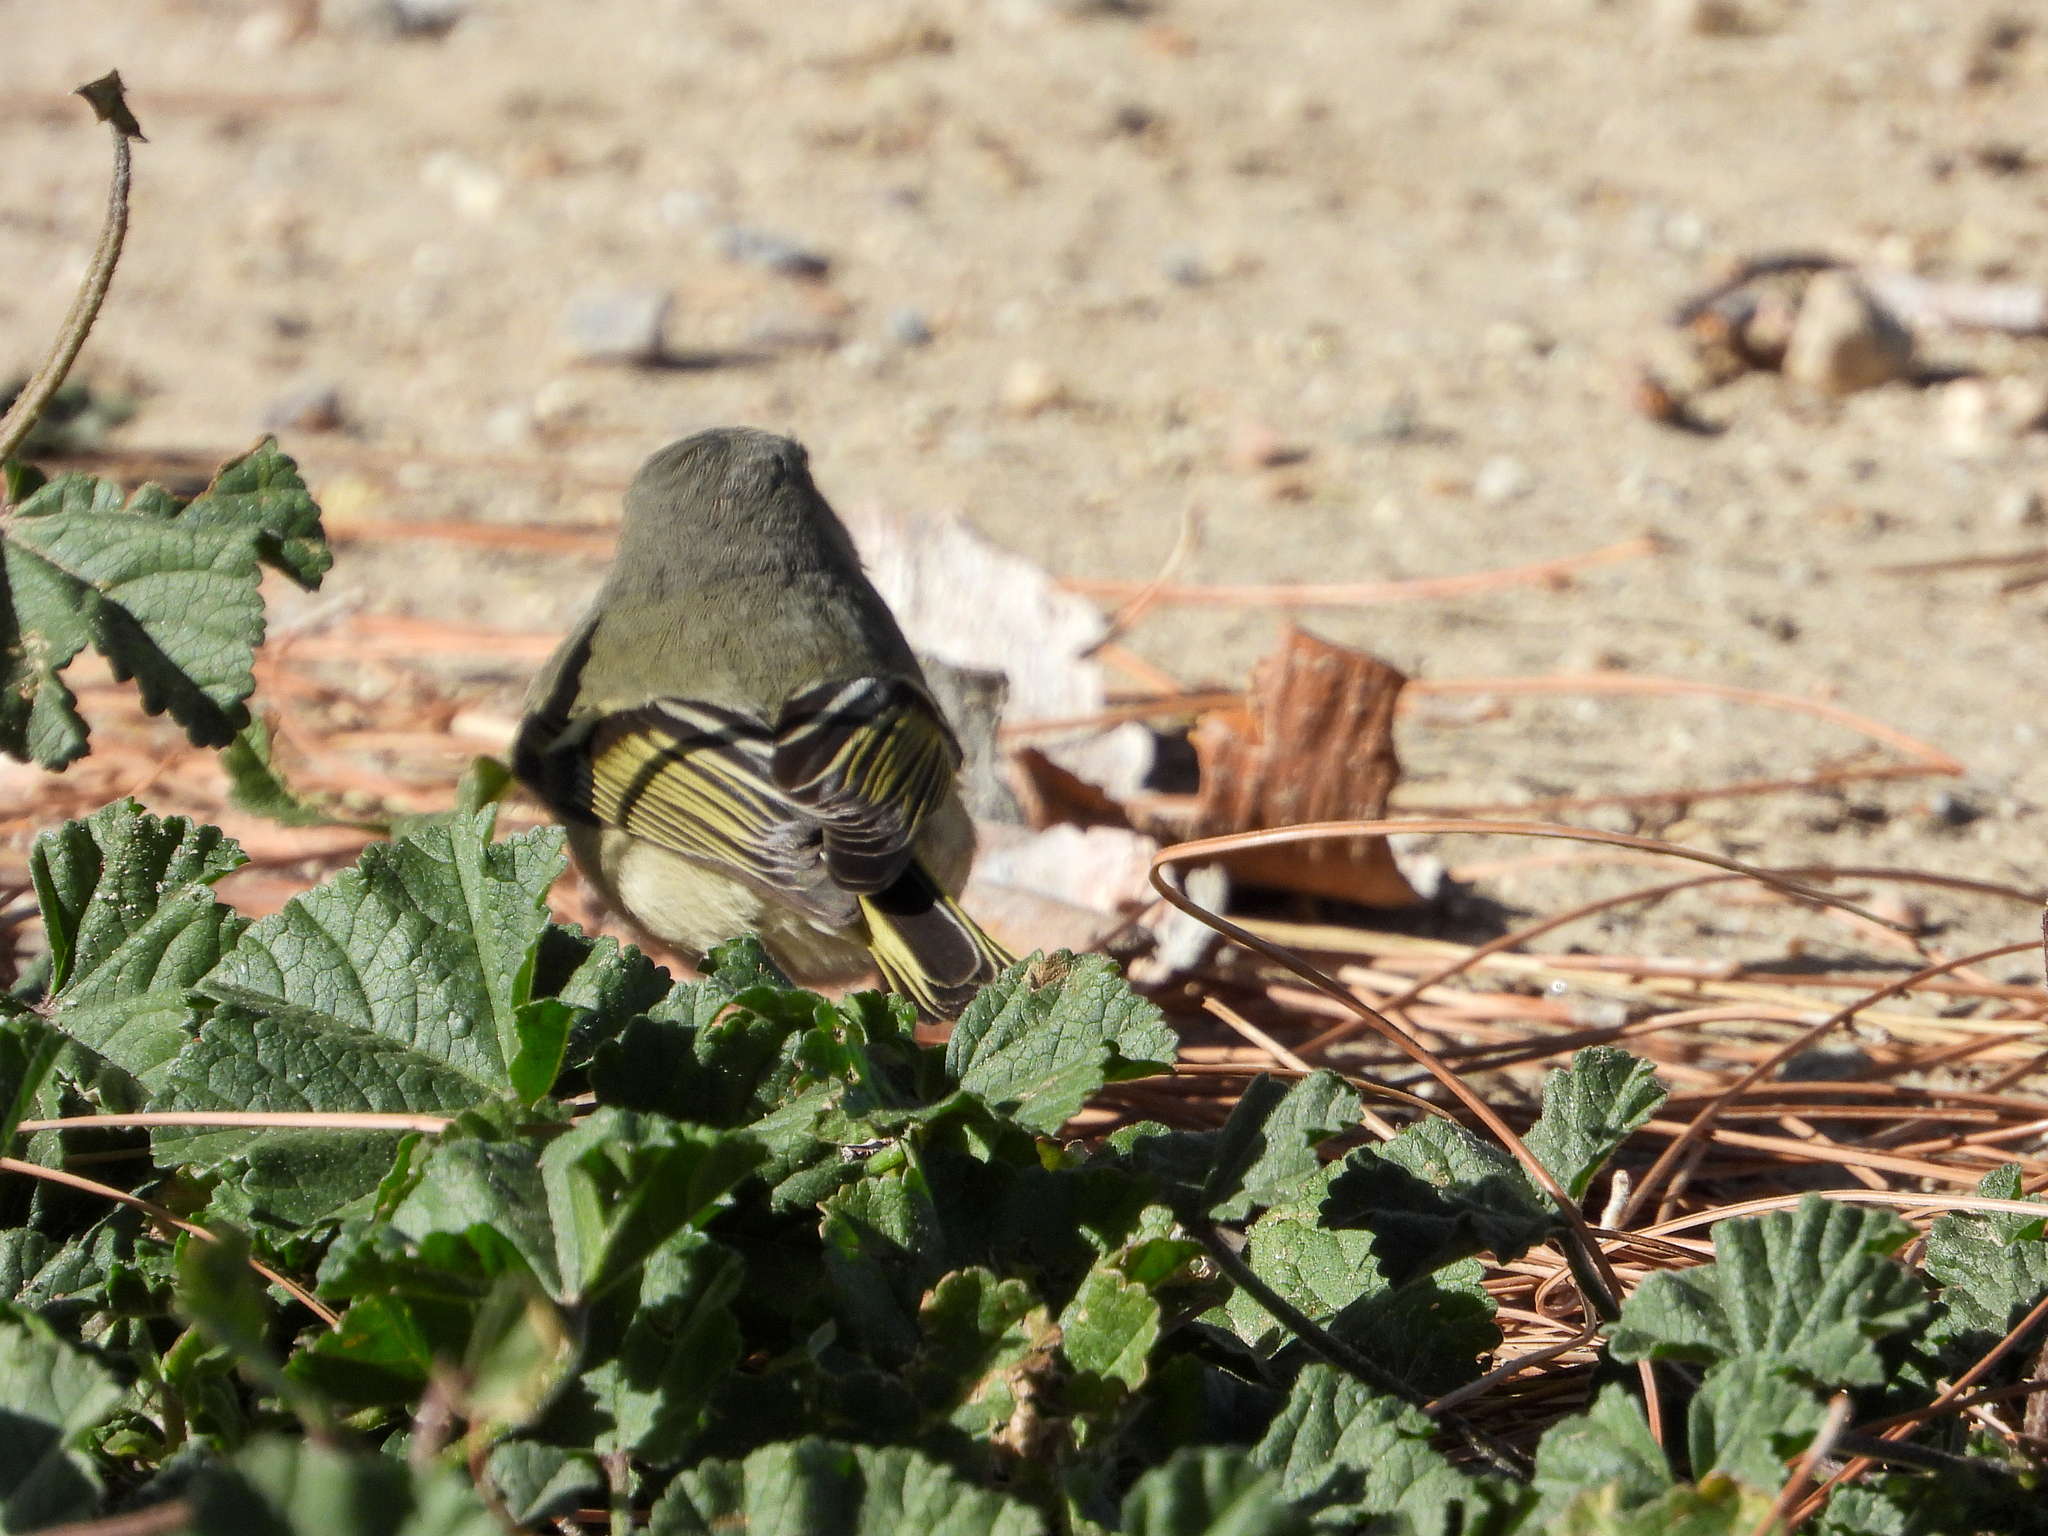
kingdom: Animalia
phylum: Chordata
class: Aves
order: Passeriformes
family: Regulidae
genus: Regulus
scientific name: Regulus calendula
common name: Ruby-crowned kinglet
